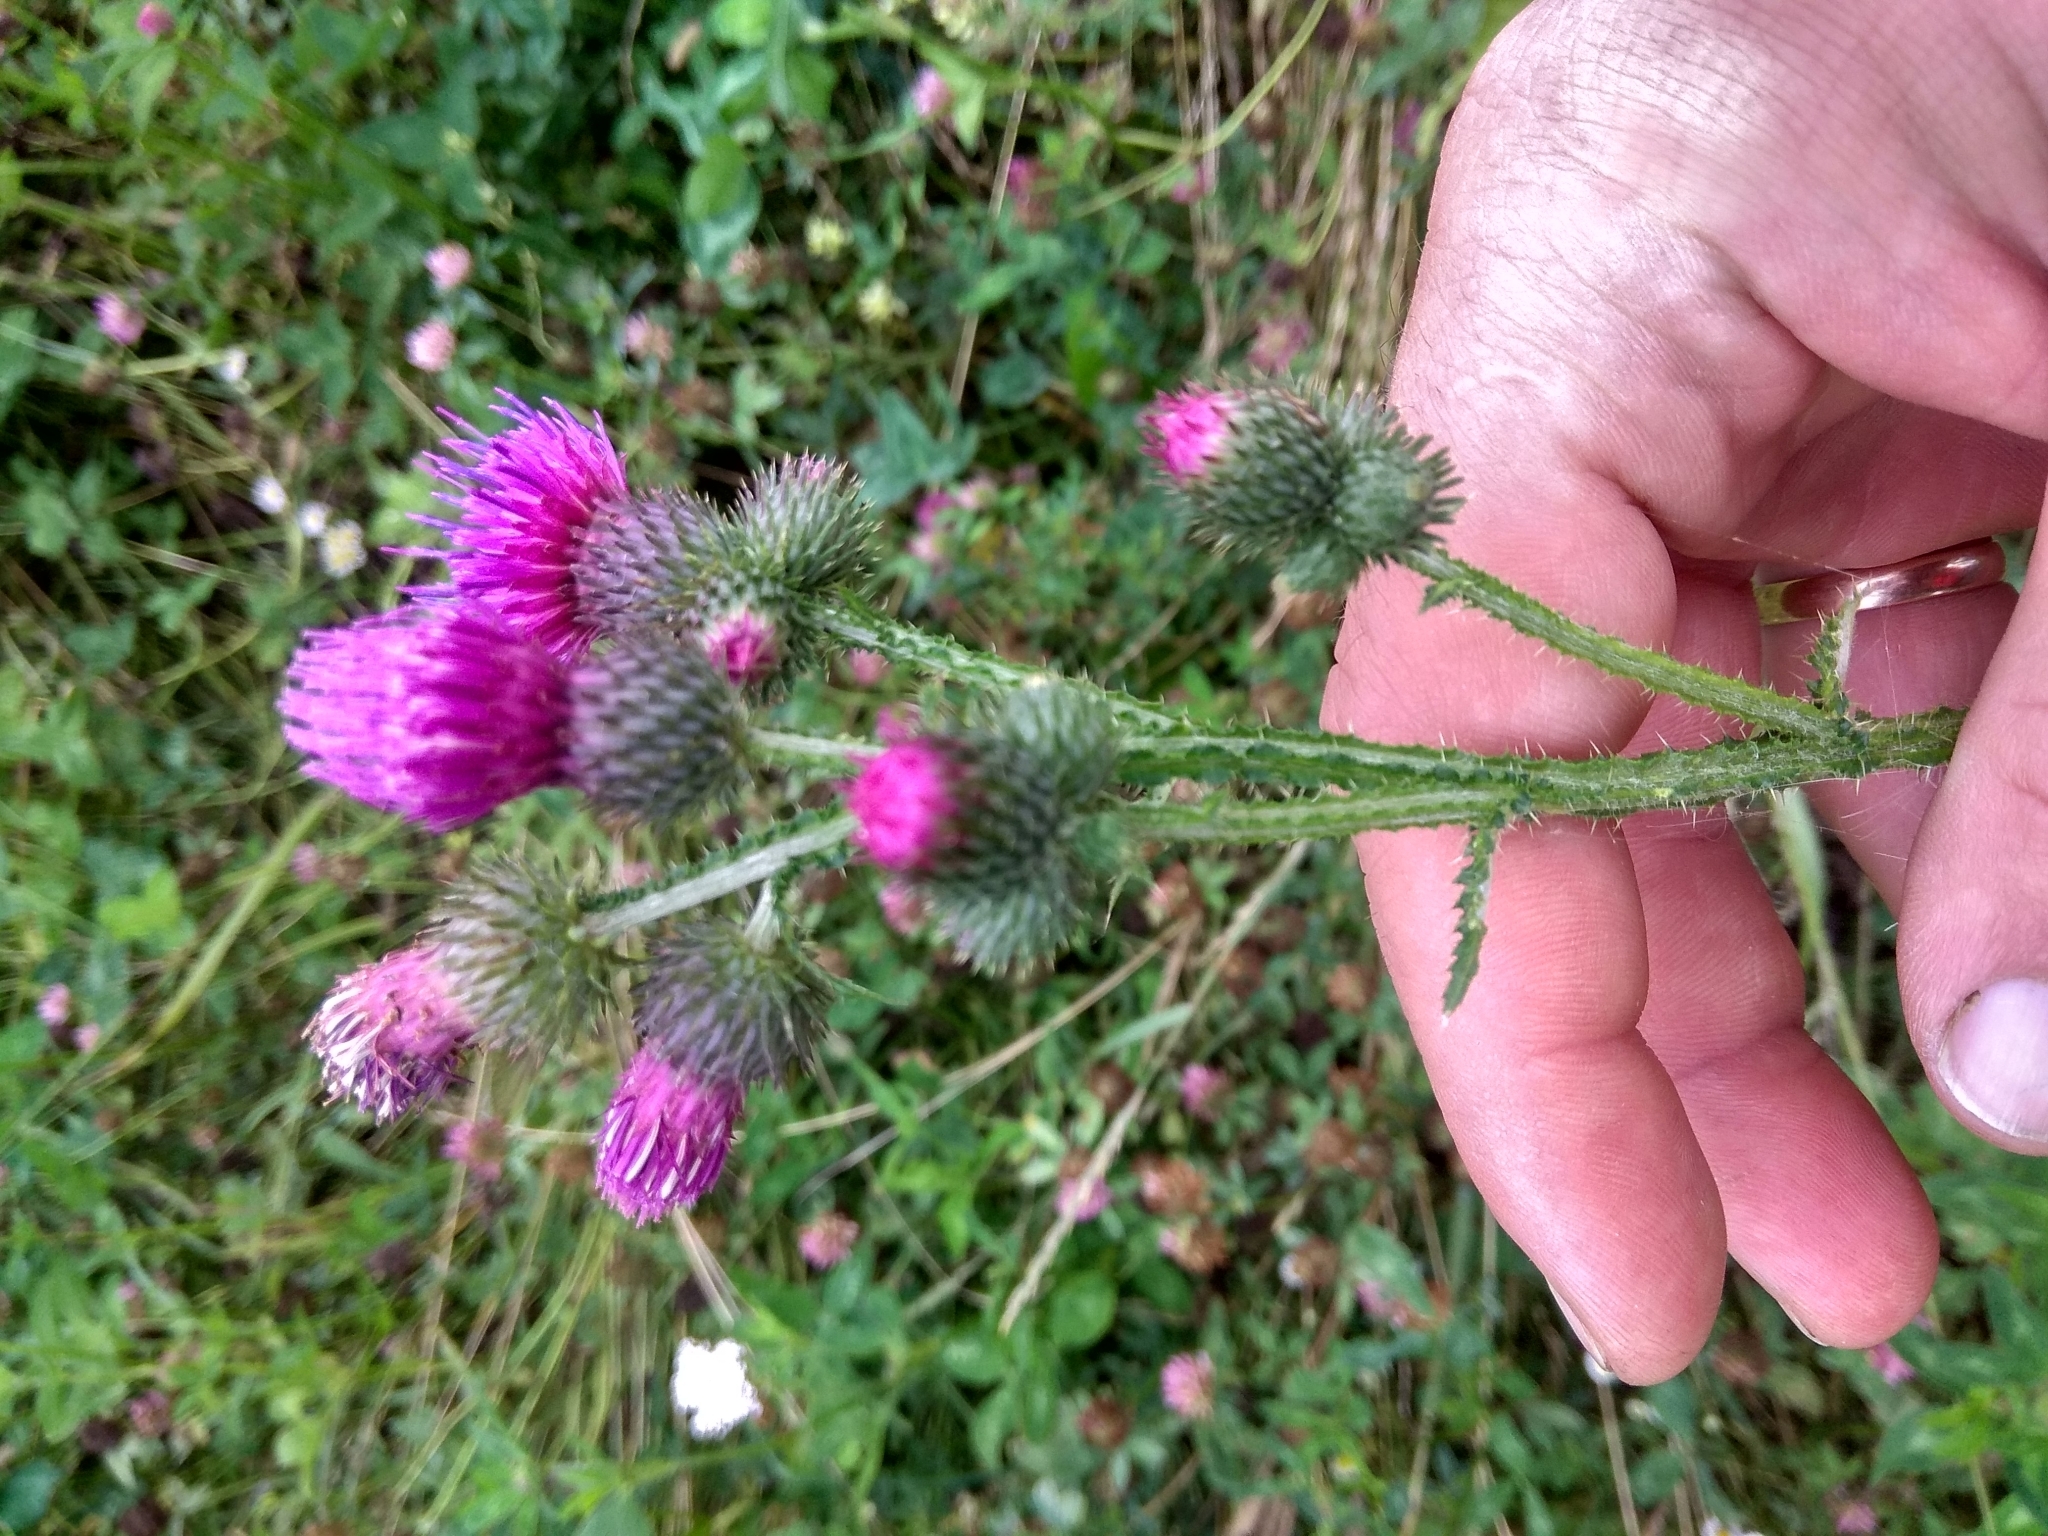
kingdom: Plantae
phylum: Tracheophyta
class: Magnoliopsida
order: Asterales
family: Asteraceae
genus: Carduus
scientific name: Carduus crispus
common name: Welted thistle
